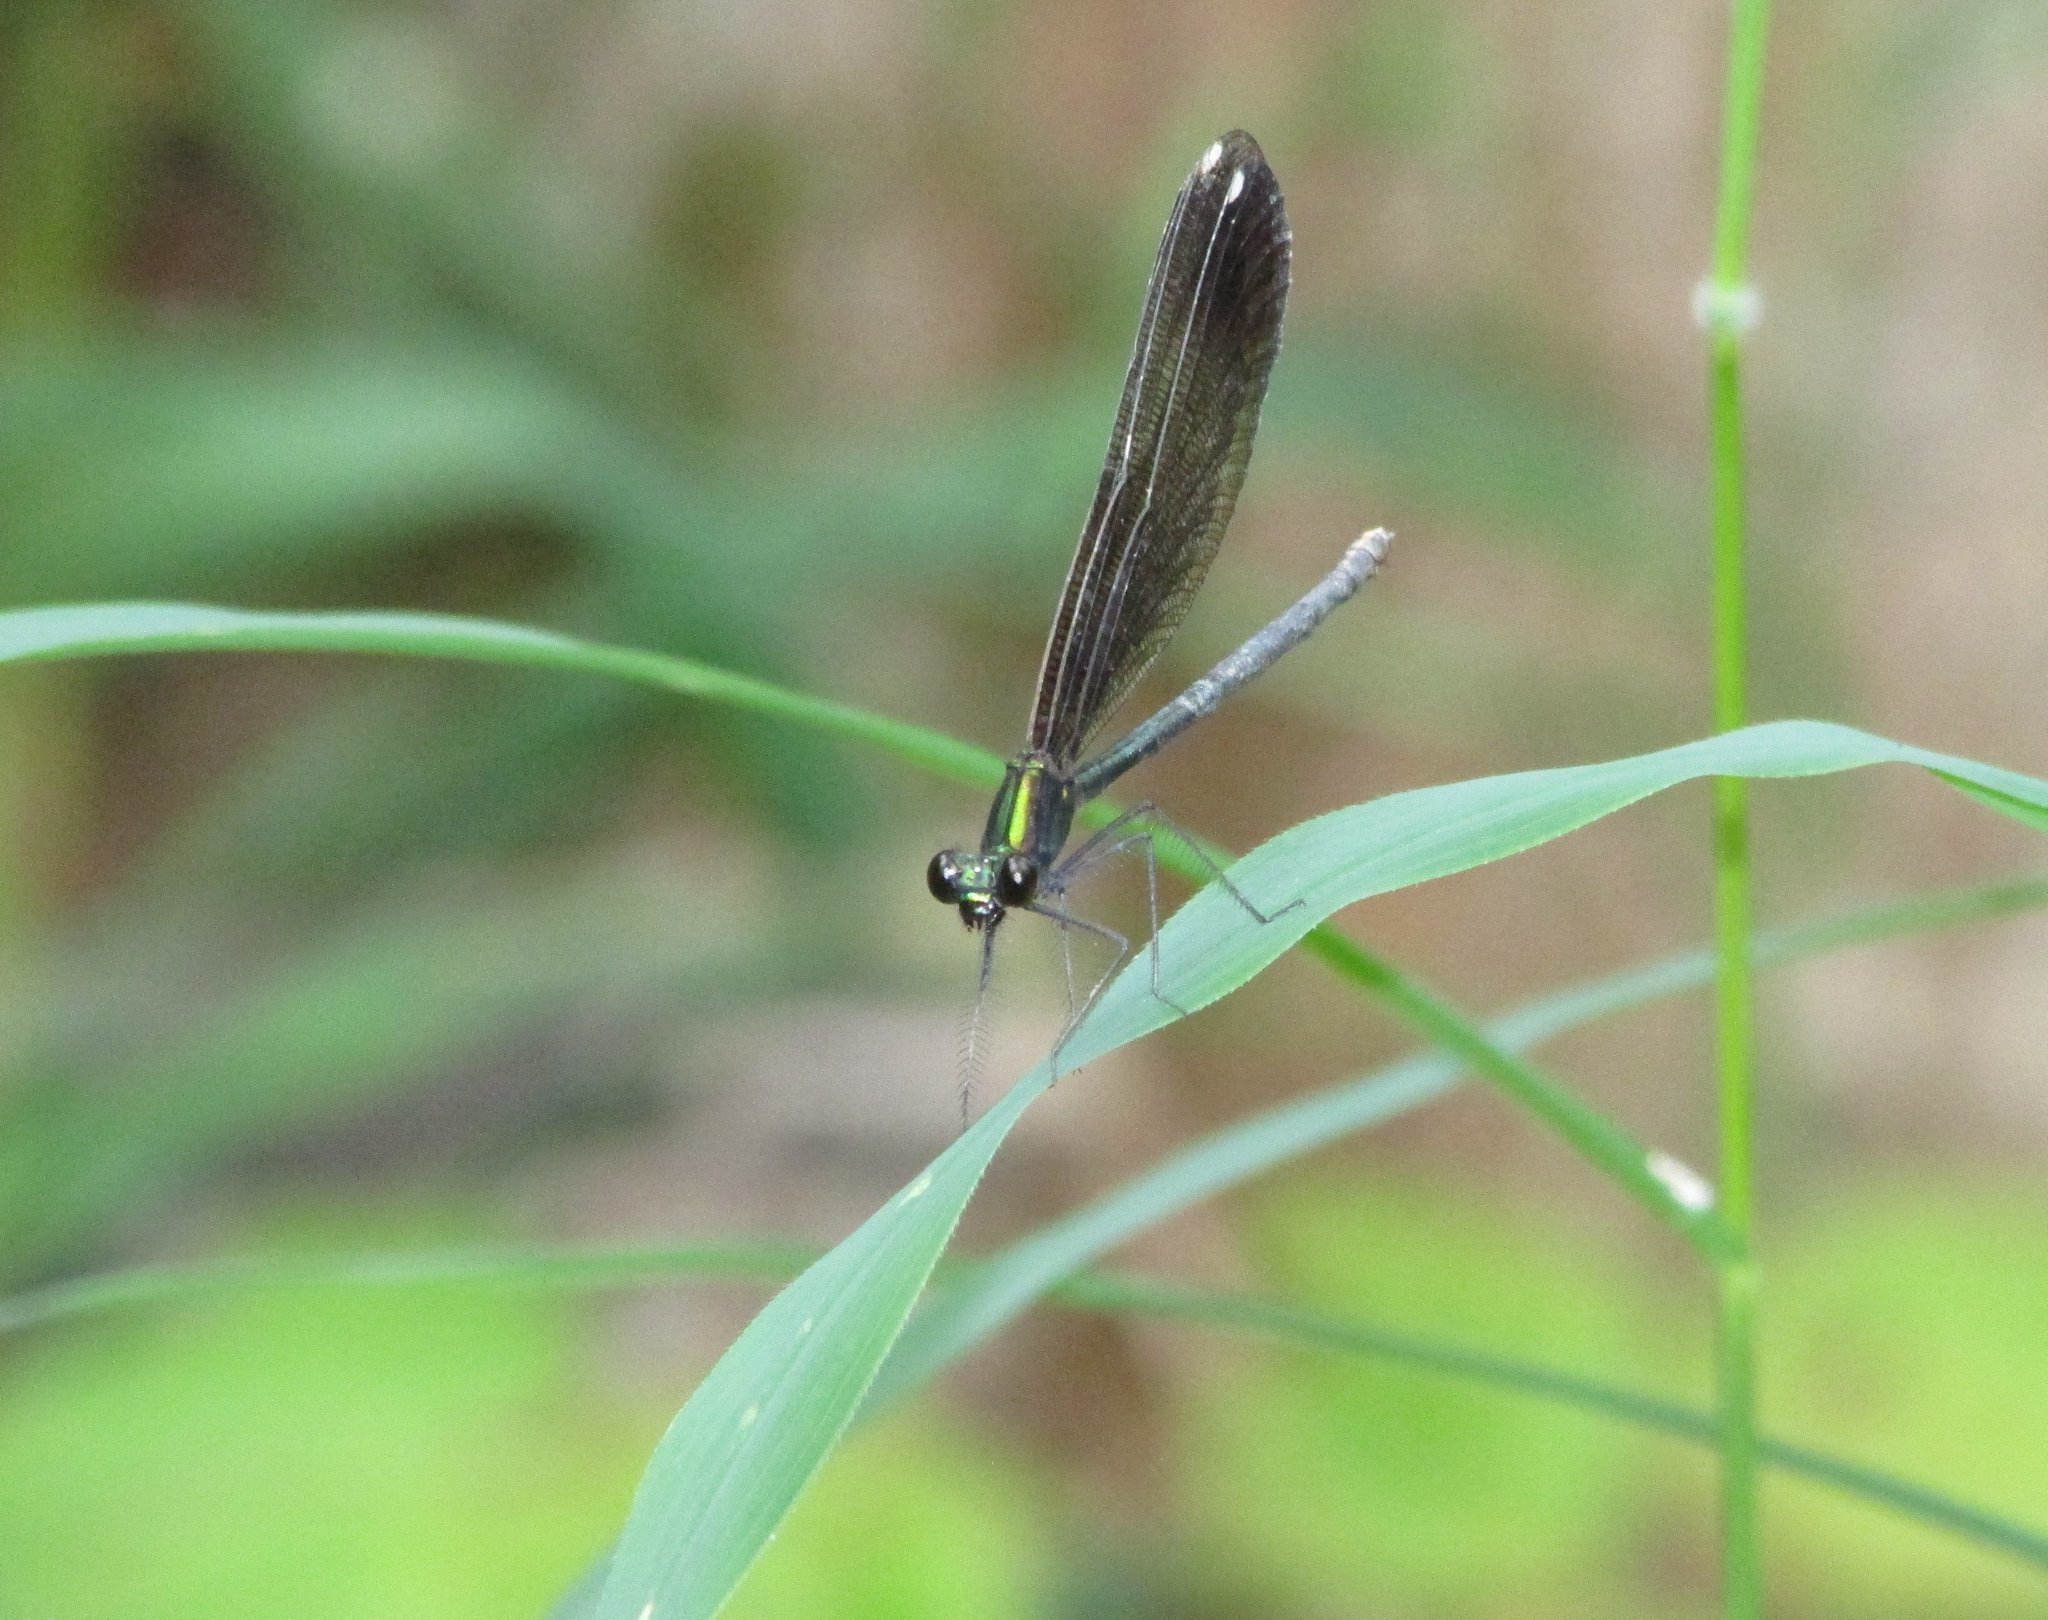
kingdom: Animalia
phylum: Arthropoda
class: Insecta
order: Odonata
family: Calopterygidae
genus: Calopteryx
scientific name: Calopteryx maculata
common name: Ebony jewelwing
